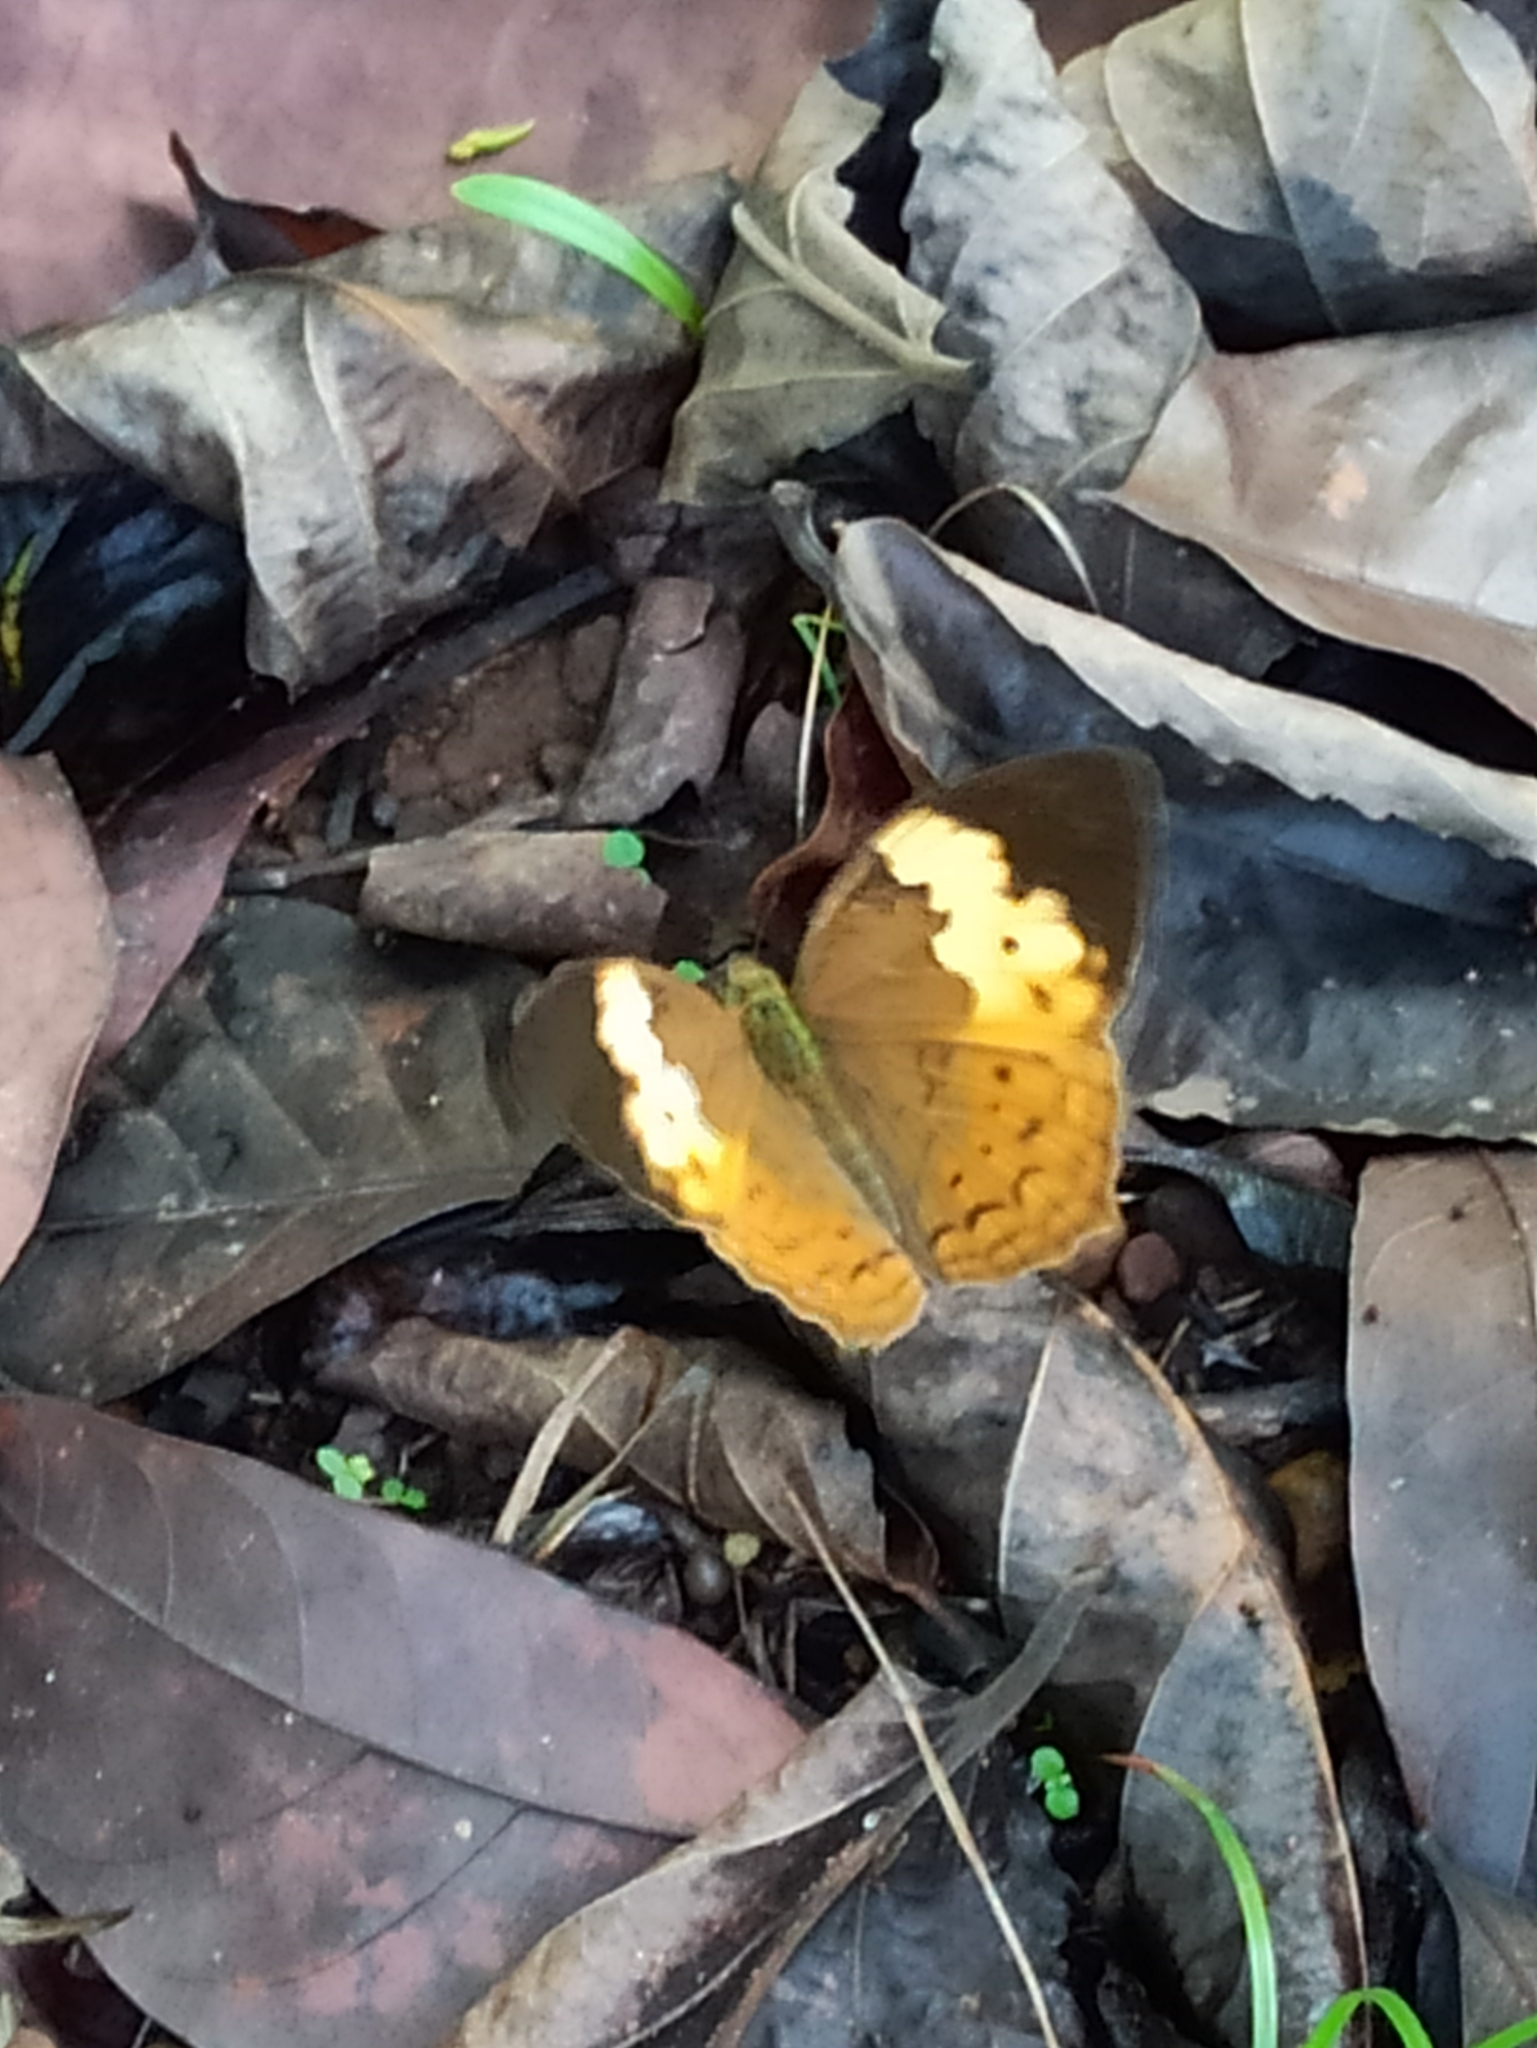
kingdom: Animalia
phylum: Arthropoda
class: Insecta
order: Lepidoptera
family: Nymphalidae
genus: Cupha
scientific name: Cupha erymanthis
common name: Rustic
